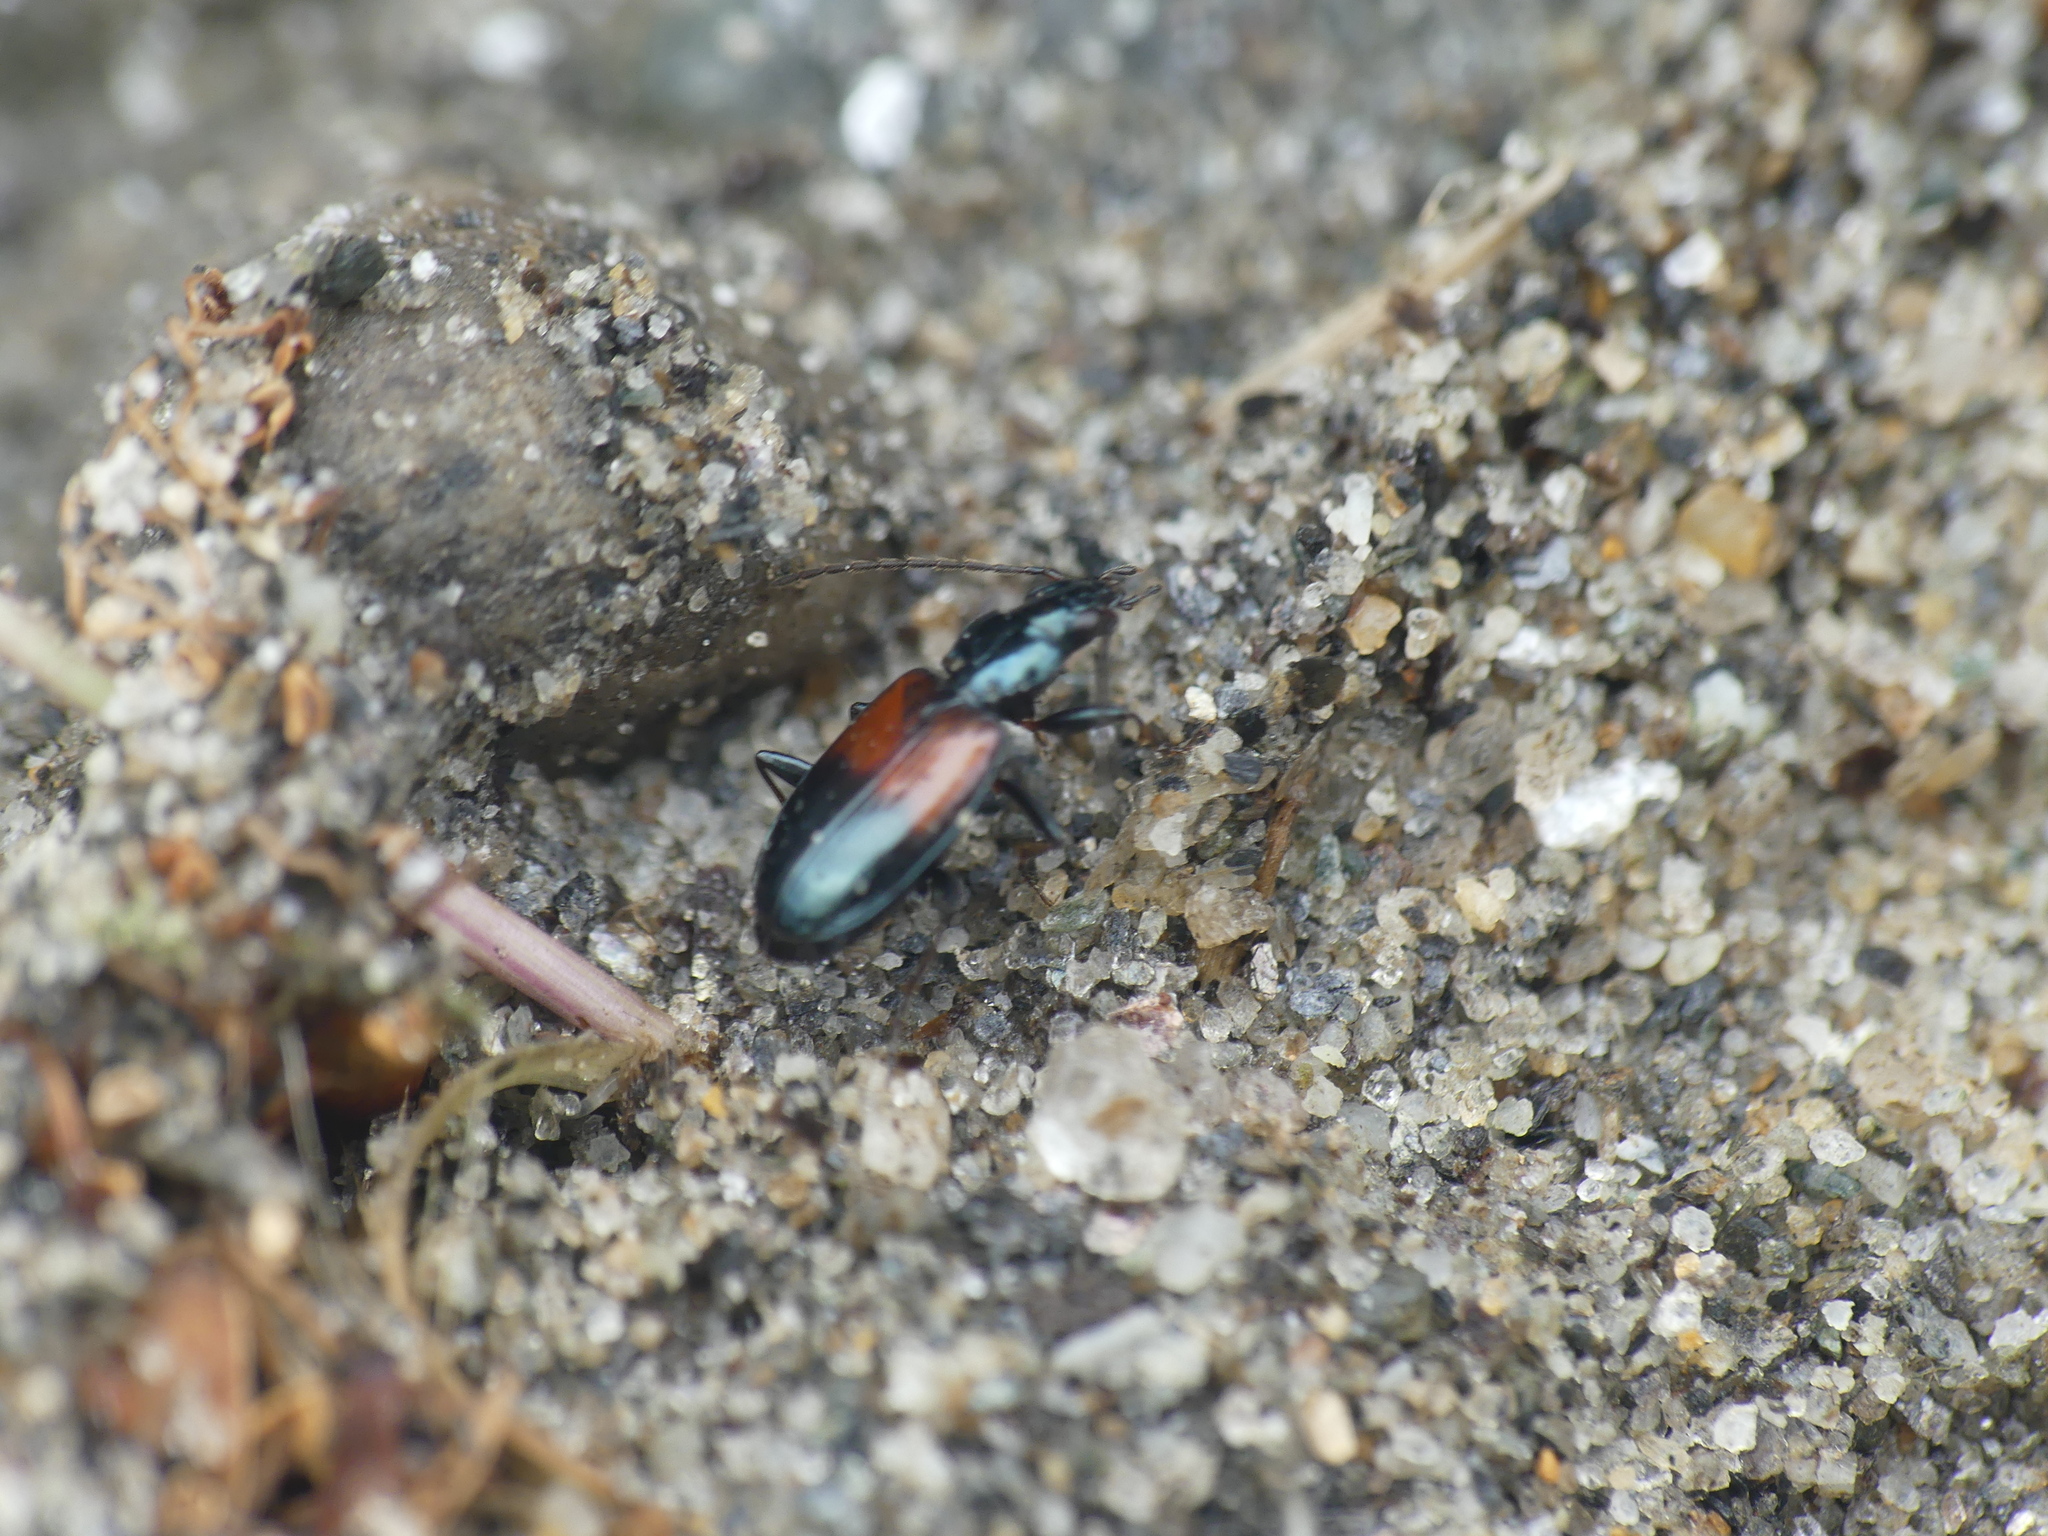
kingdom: Animalia
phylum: Arthropoda
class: Insecta
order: Coleoptera
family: Carabidae
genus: Bembidion
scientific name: Bembidion varicolor
